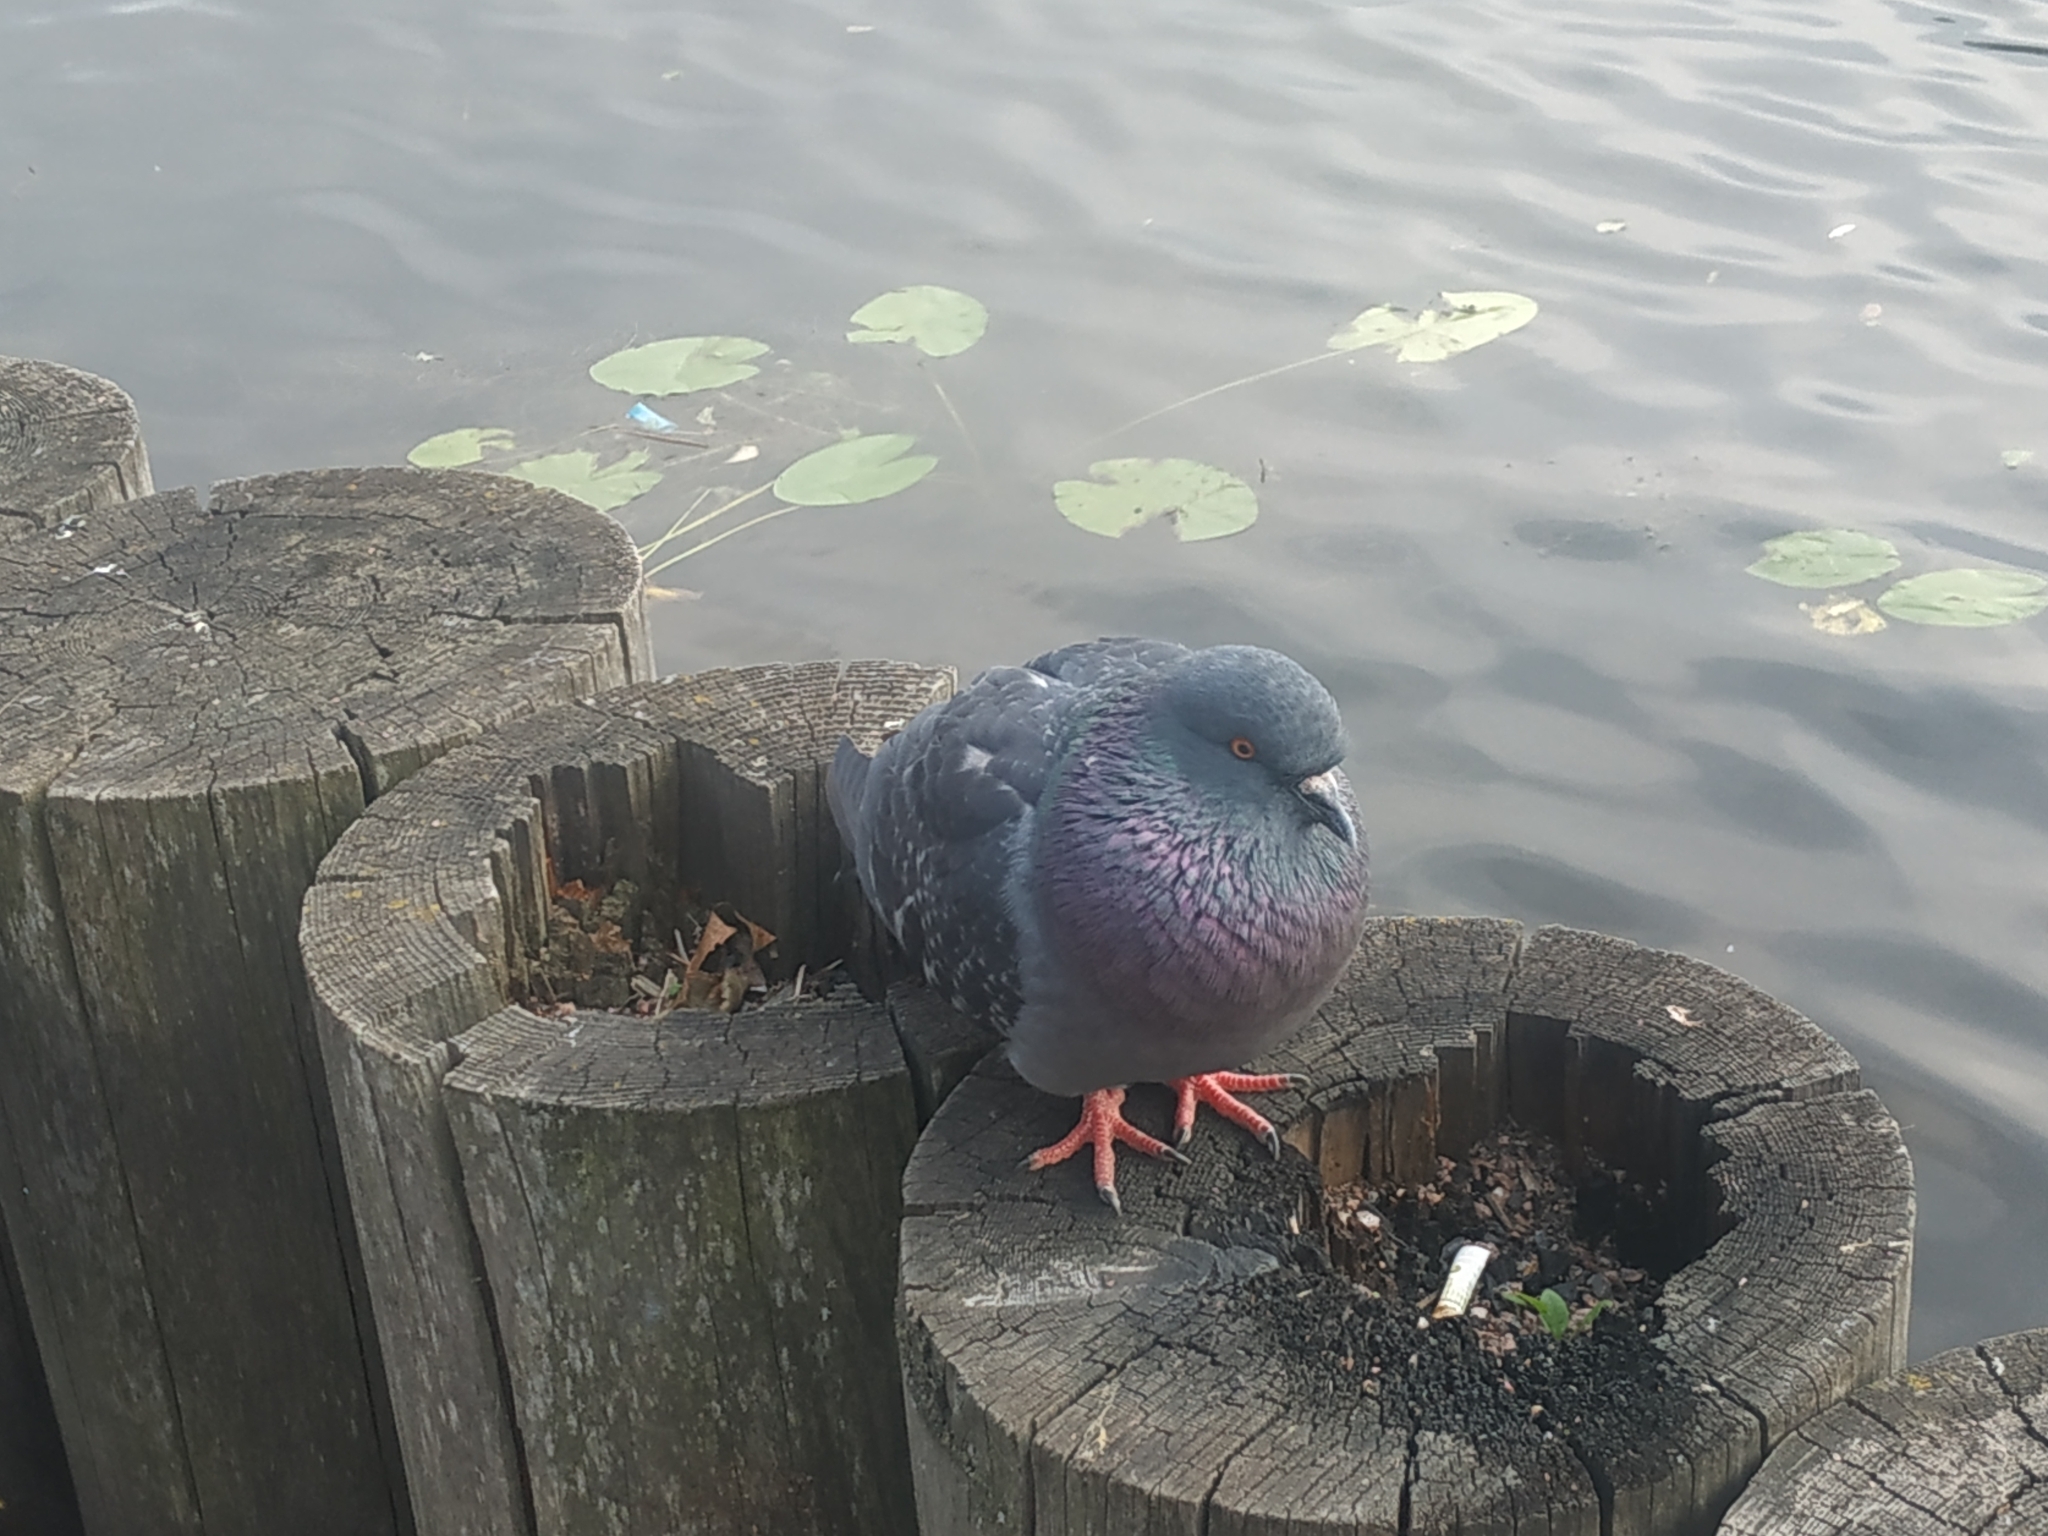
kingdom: Animalia
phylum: Chordata
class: Aves
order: Columbiformes
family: Columbidae
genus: Columba
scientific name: Columba livia
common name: Rock pigeon
